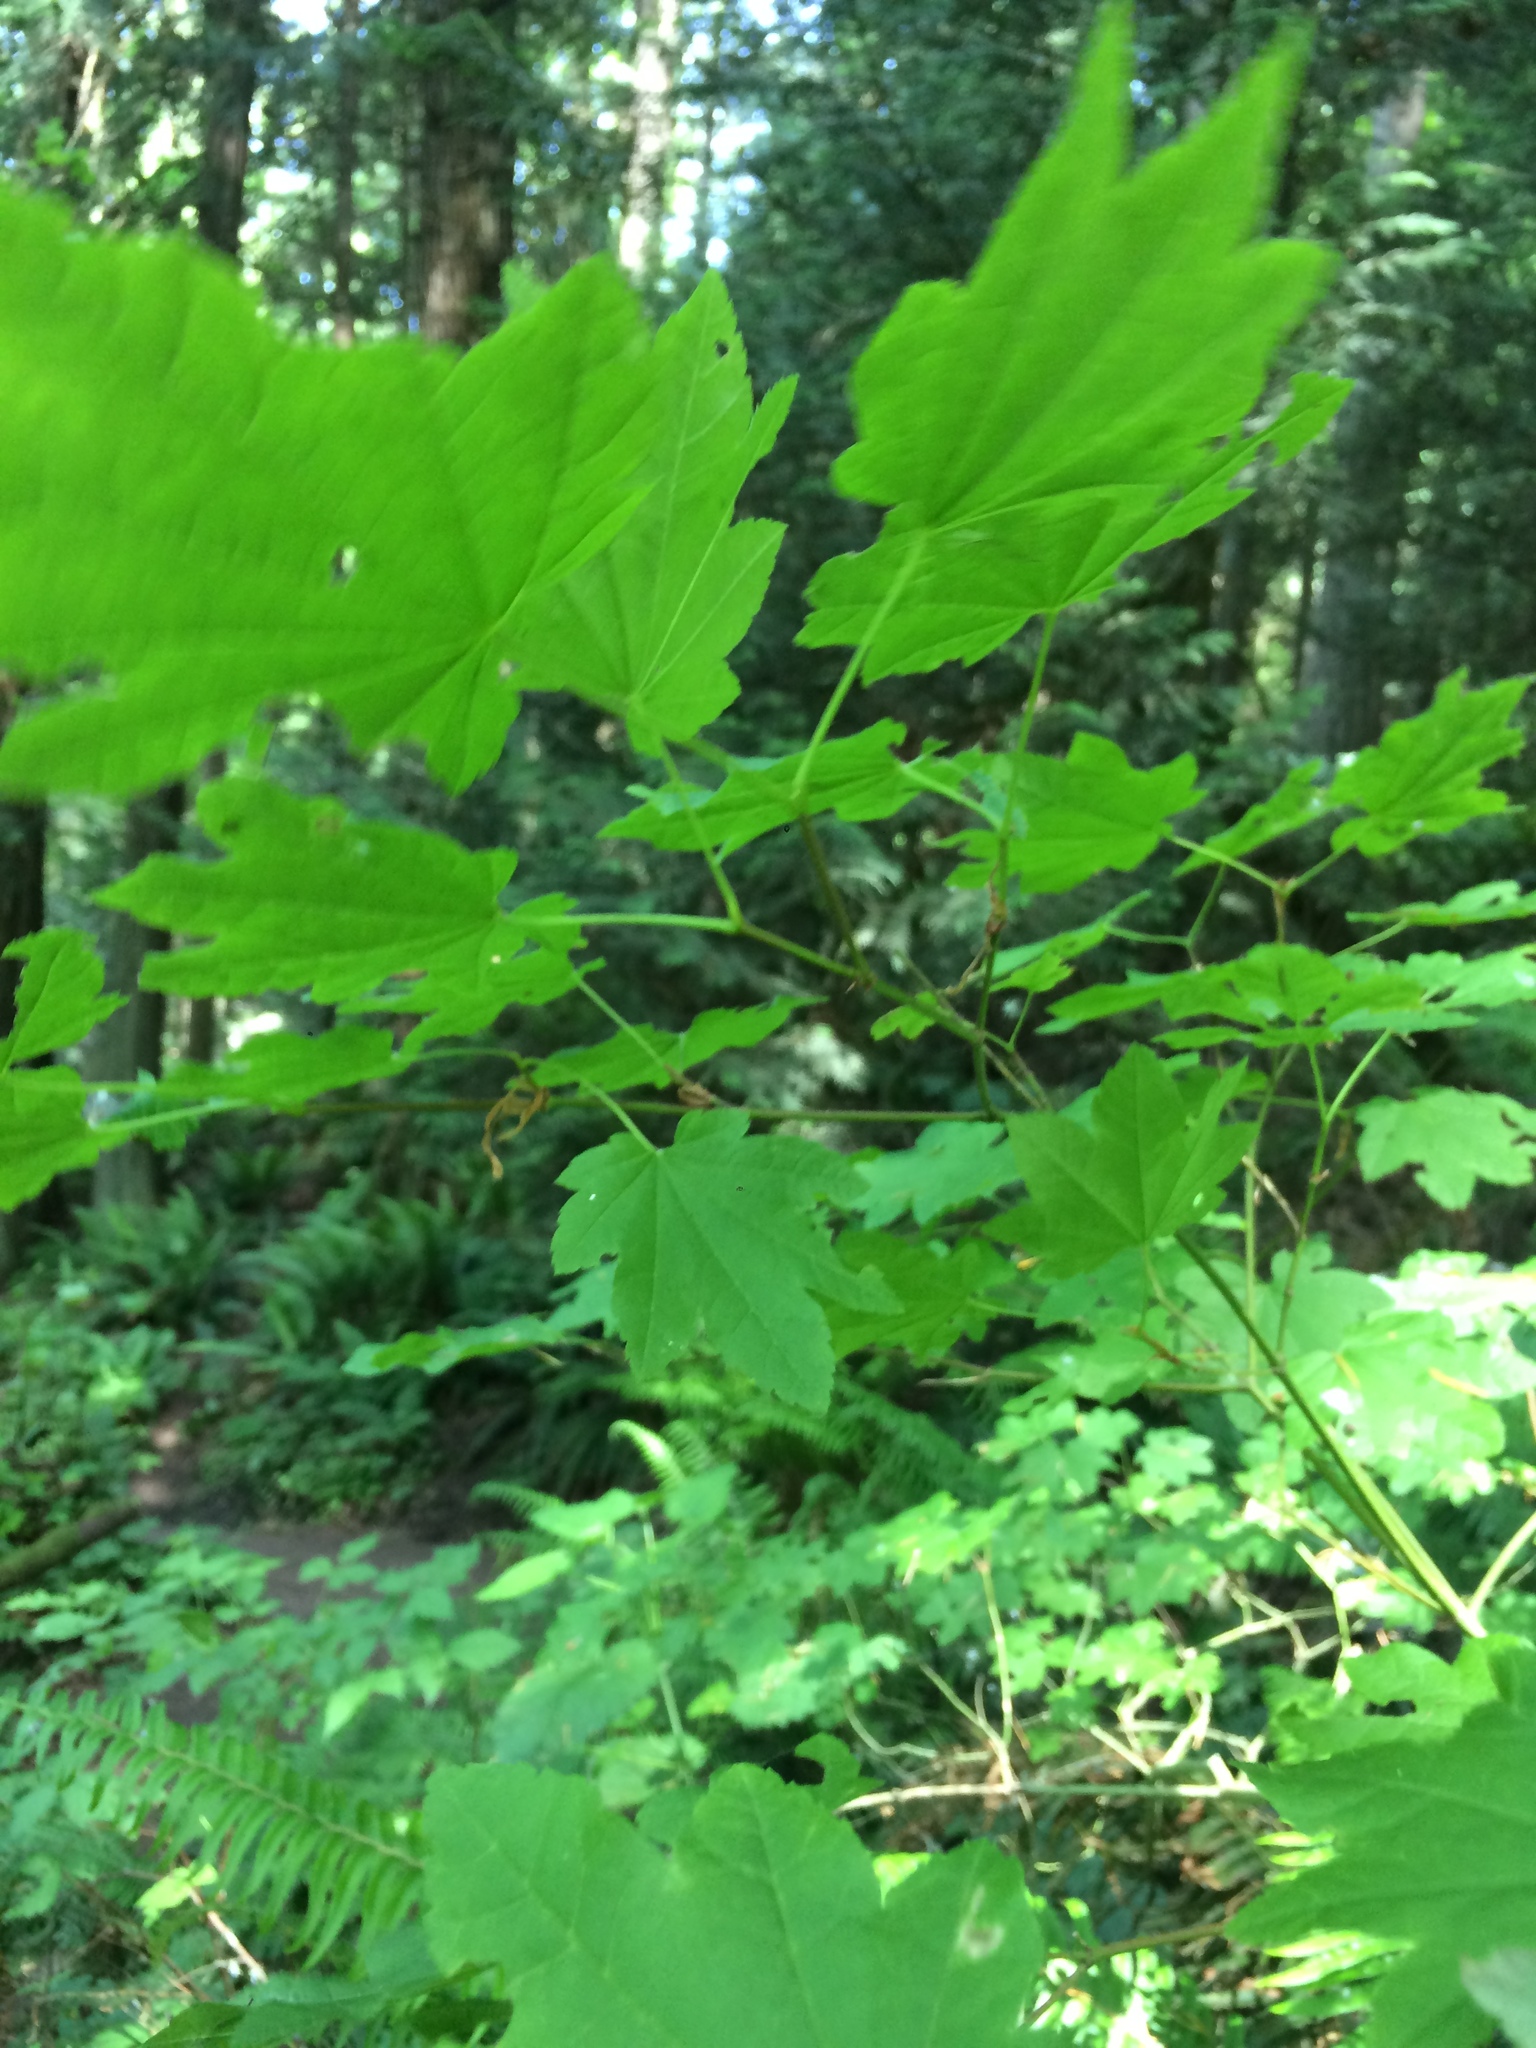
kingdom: Plantae
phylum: Tracheophyta
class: Magnoliopsida
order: Sapindales
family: Sapindaceae
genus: Acer
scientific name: Acer circinatum
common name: Vine maple
